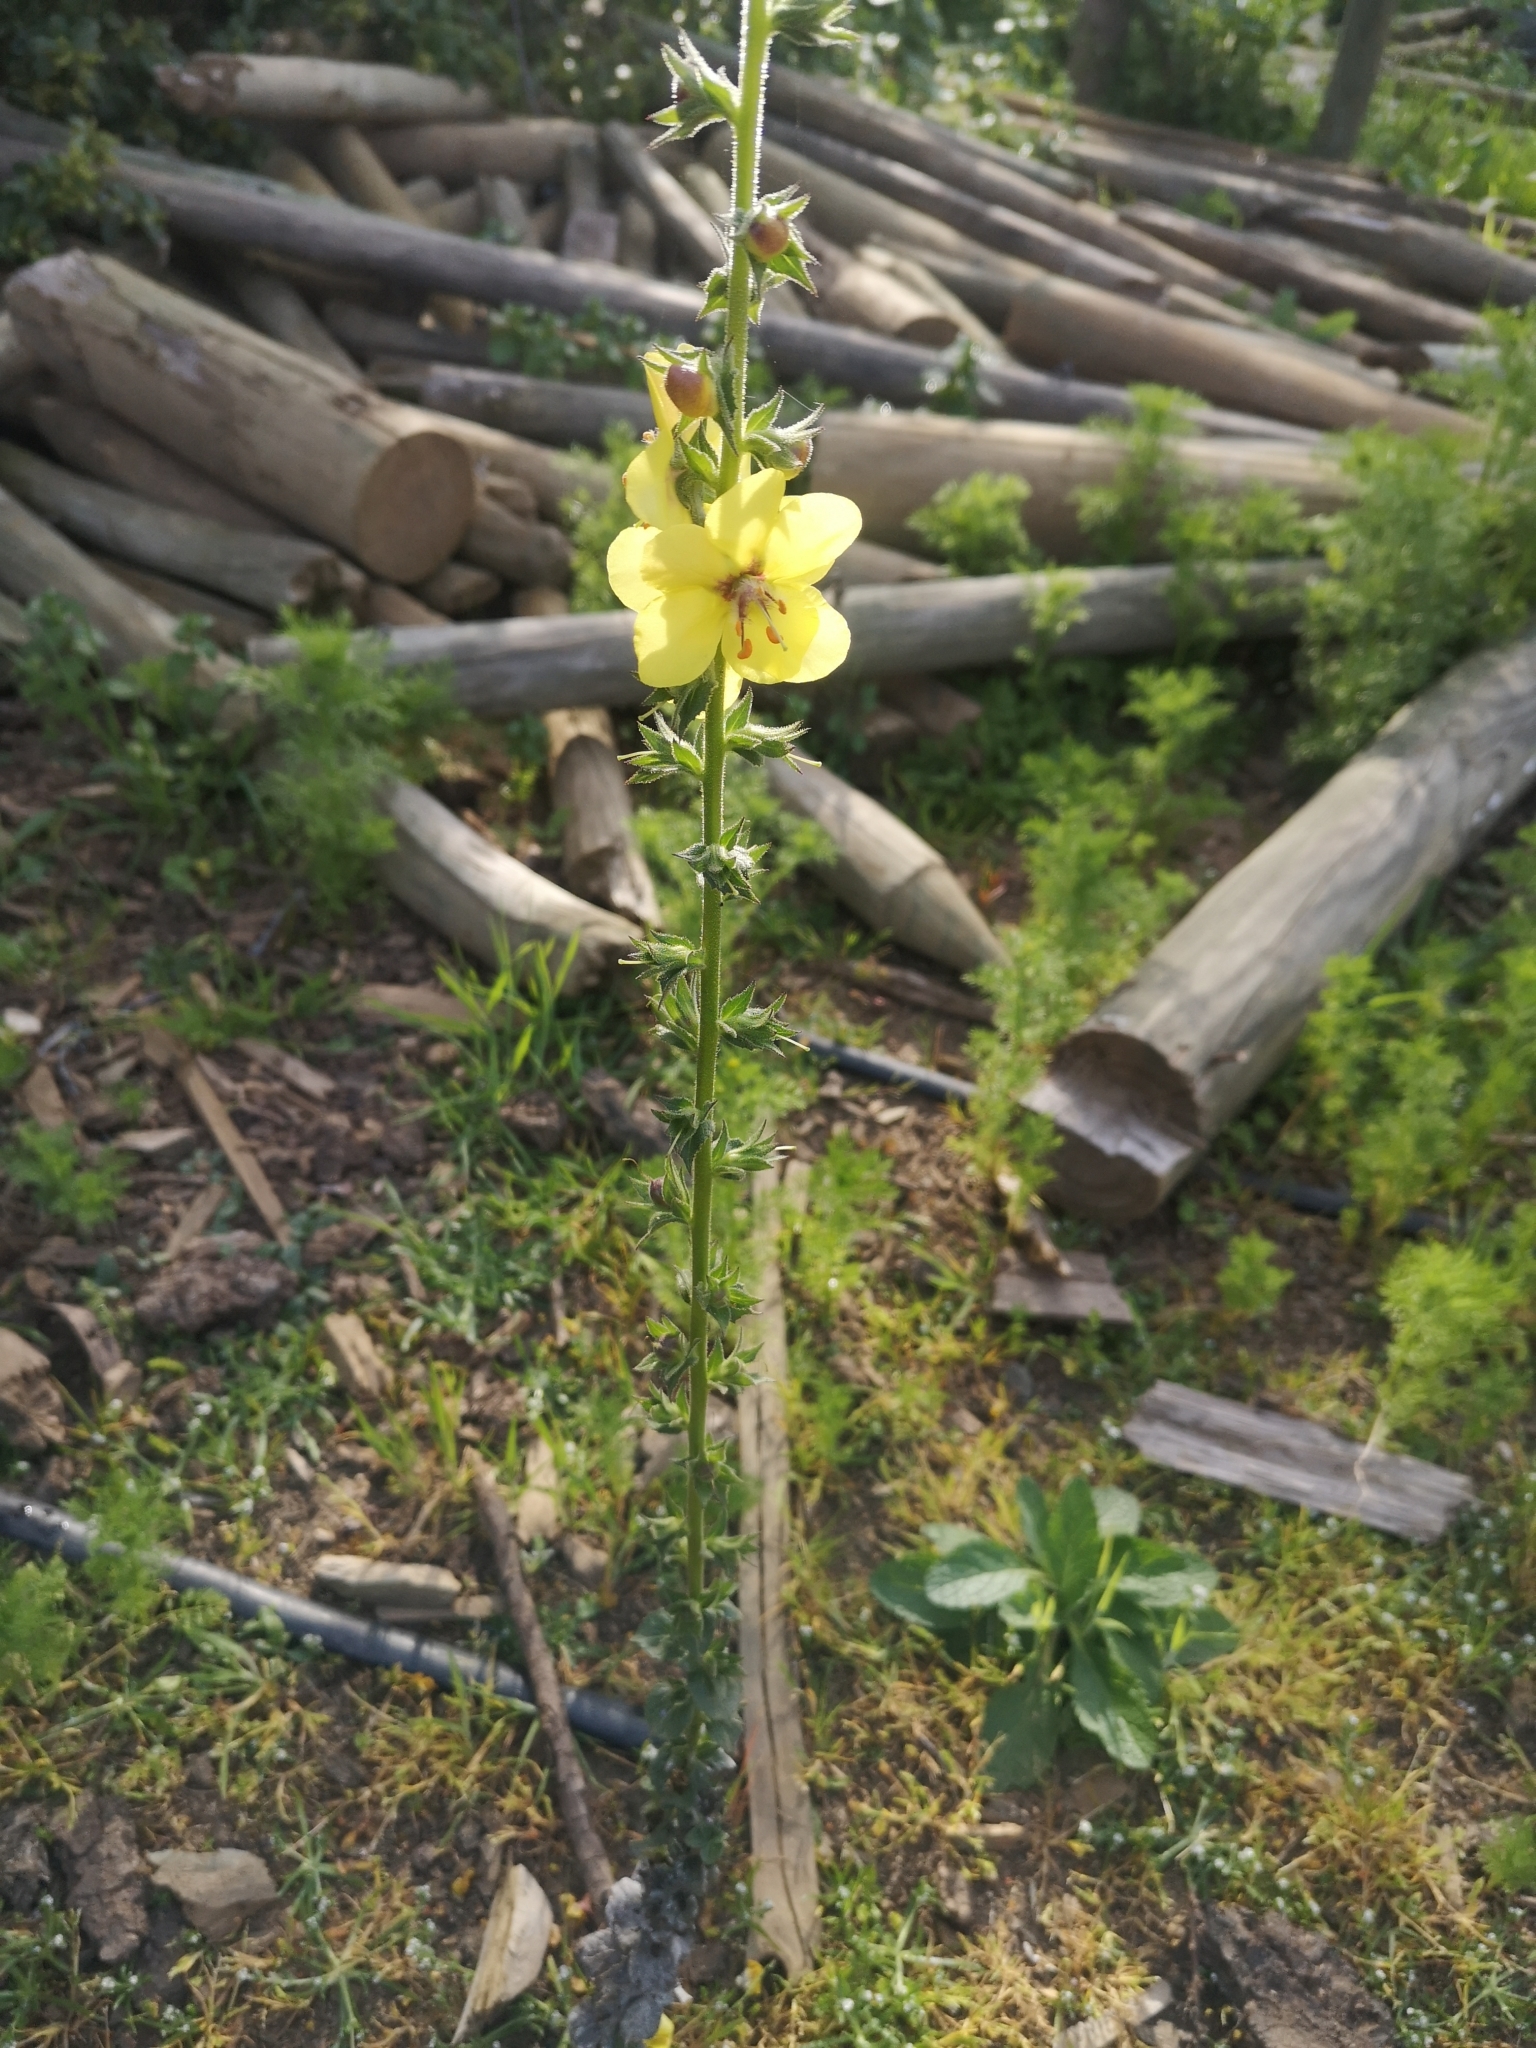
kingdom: Plantae
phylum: Tracheophyta
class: Magnoliopsida
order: Lamiales
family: Scrophulariaceae
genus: Verbascum
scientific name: Verbascum virgatum
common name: Twiggy mullein
